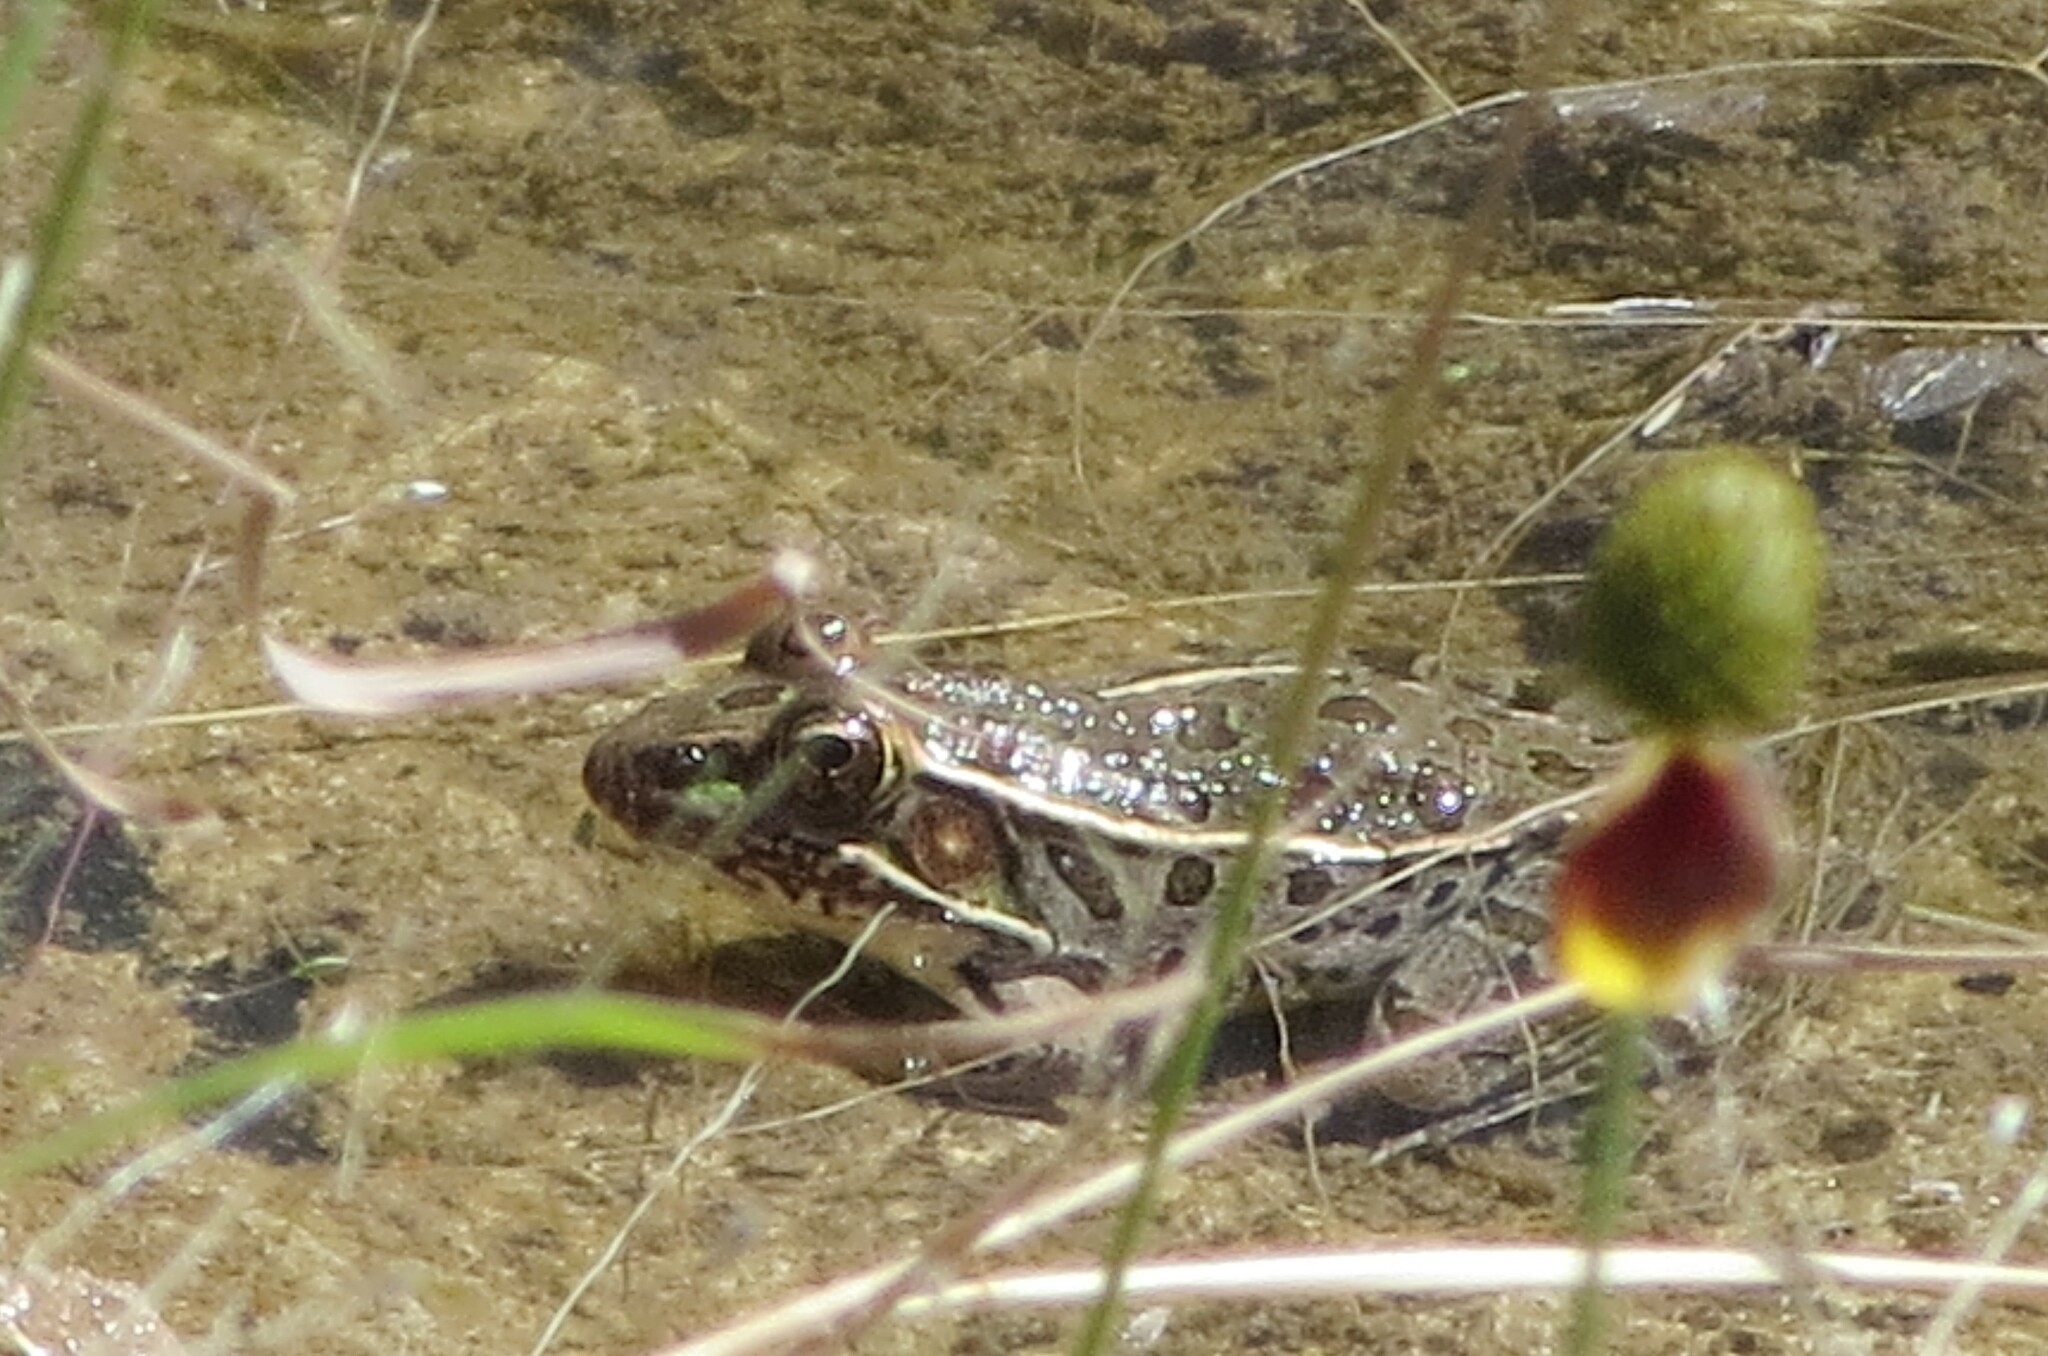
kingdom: Animalia
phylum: Chordata
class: Amphibia
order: Anura
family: Ranidae
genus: Lithobates
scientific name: Lithobates berlandieri
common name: Rio grande leopard frog
